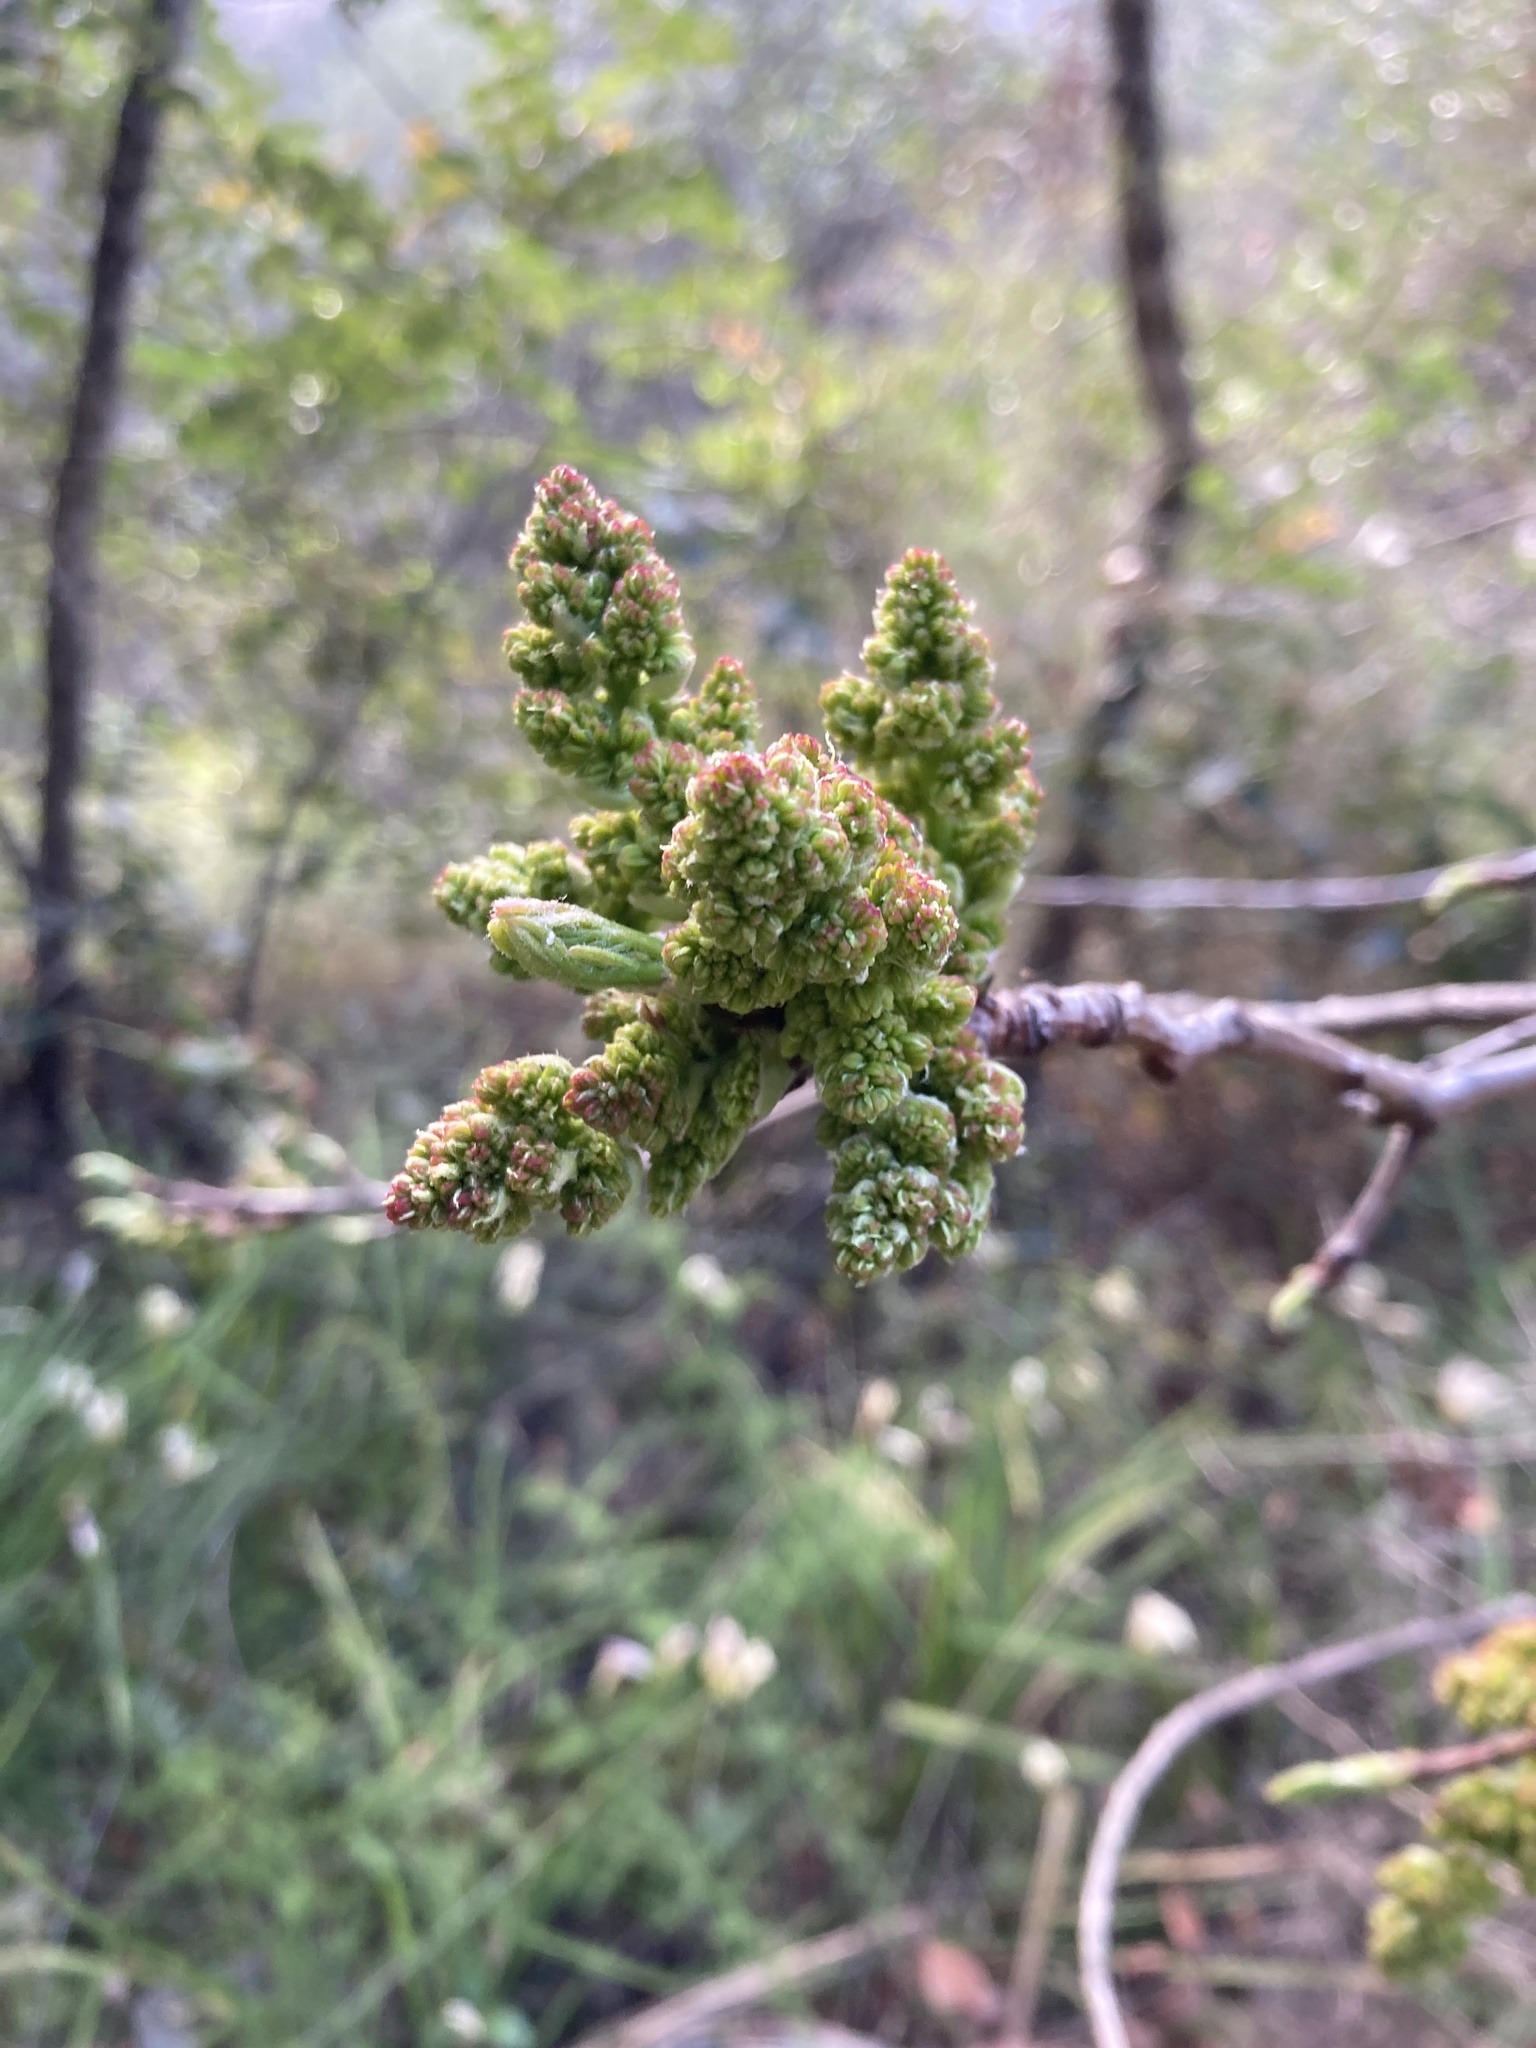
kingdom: Plantae
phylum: Tracheophyta
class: Magnoliopsida
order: Sapindales
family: Anacardiaceae
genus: Pistacia
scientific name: Pistacia terebinthus
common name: Terebinth
